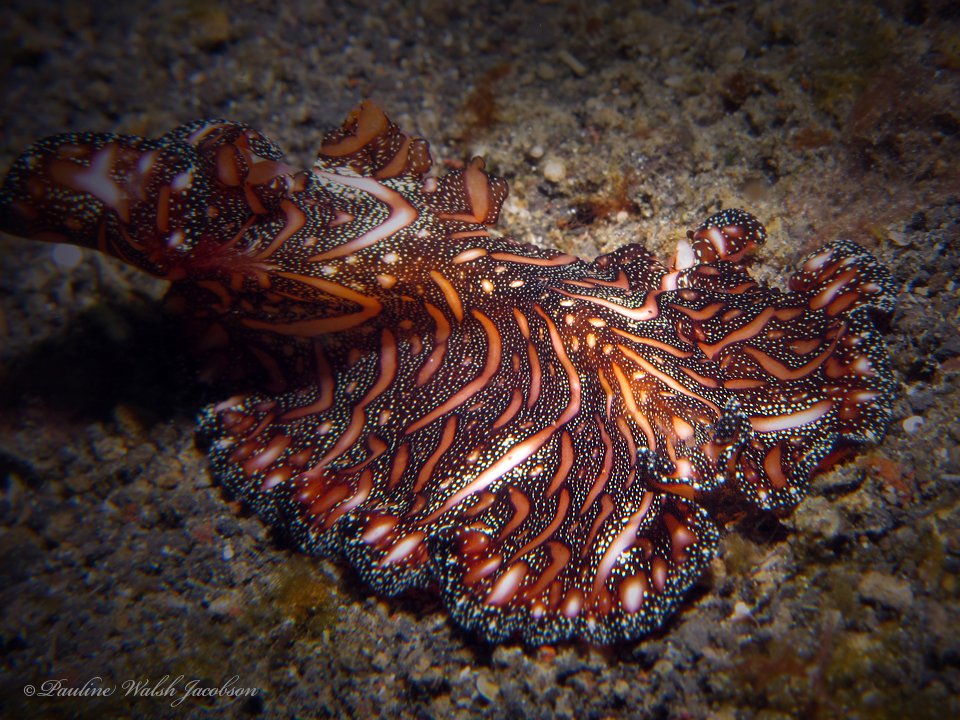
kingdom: Animalia
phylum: Platyhelminthes
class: Turbellaria
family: Pseudocerotidae
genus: Pseudobiceros
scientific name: Pseudobiceros bedfordi
